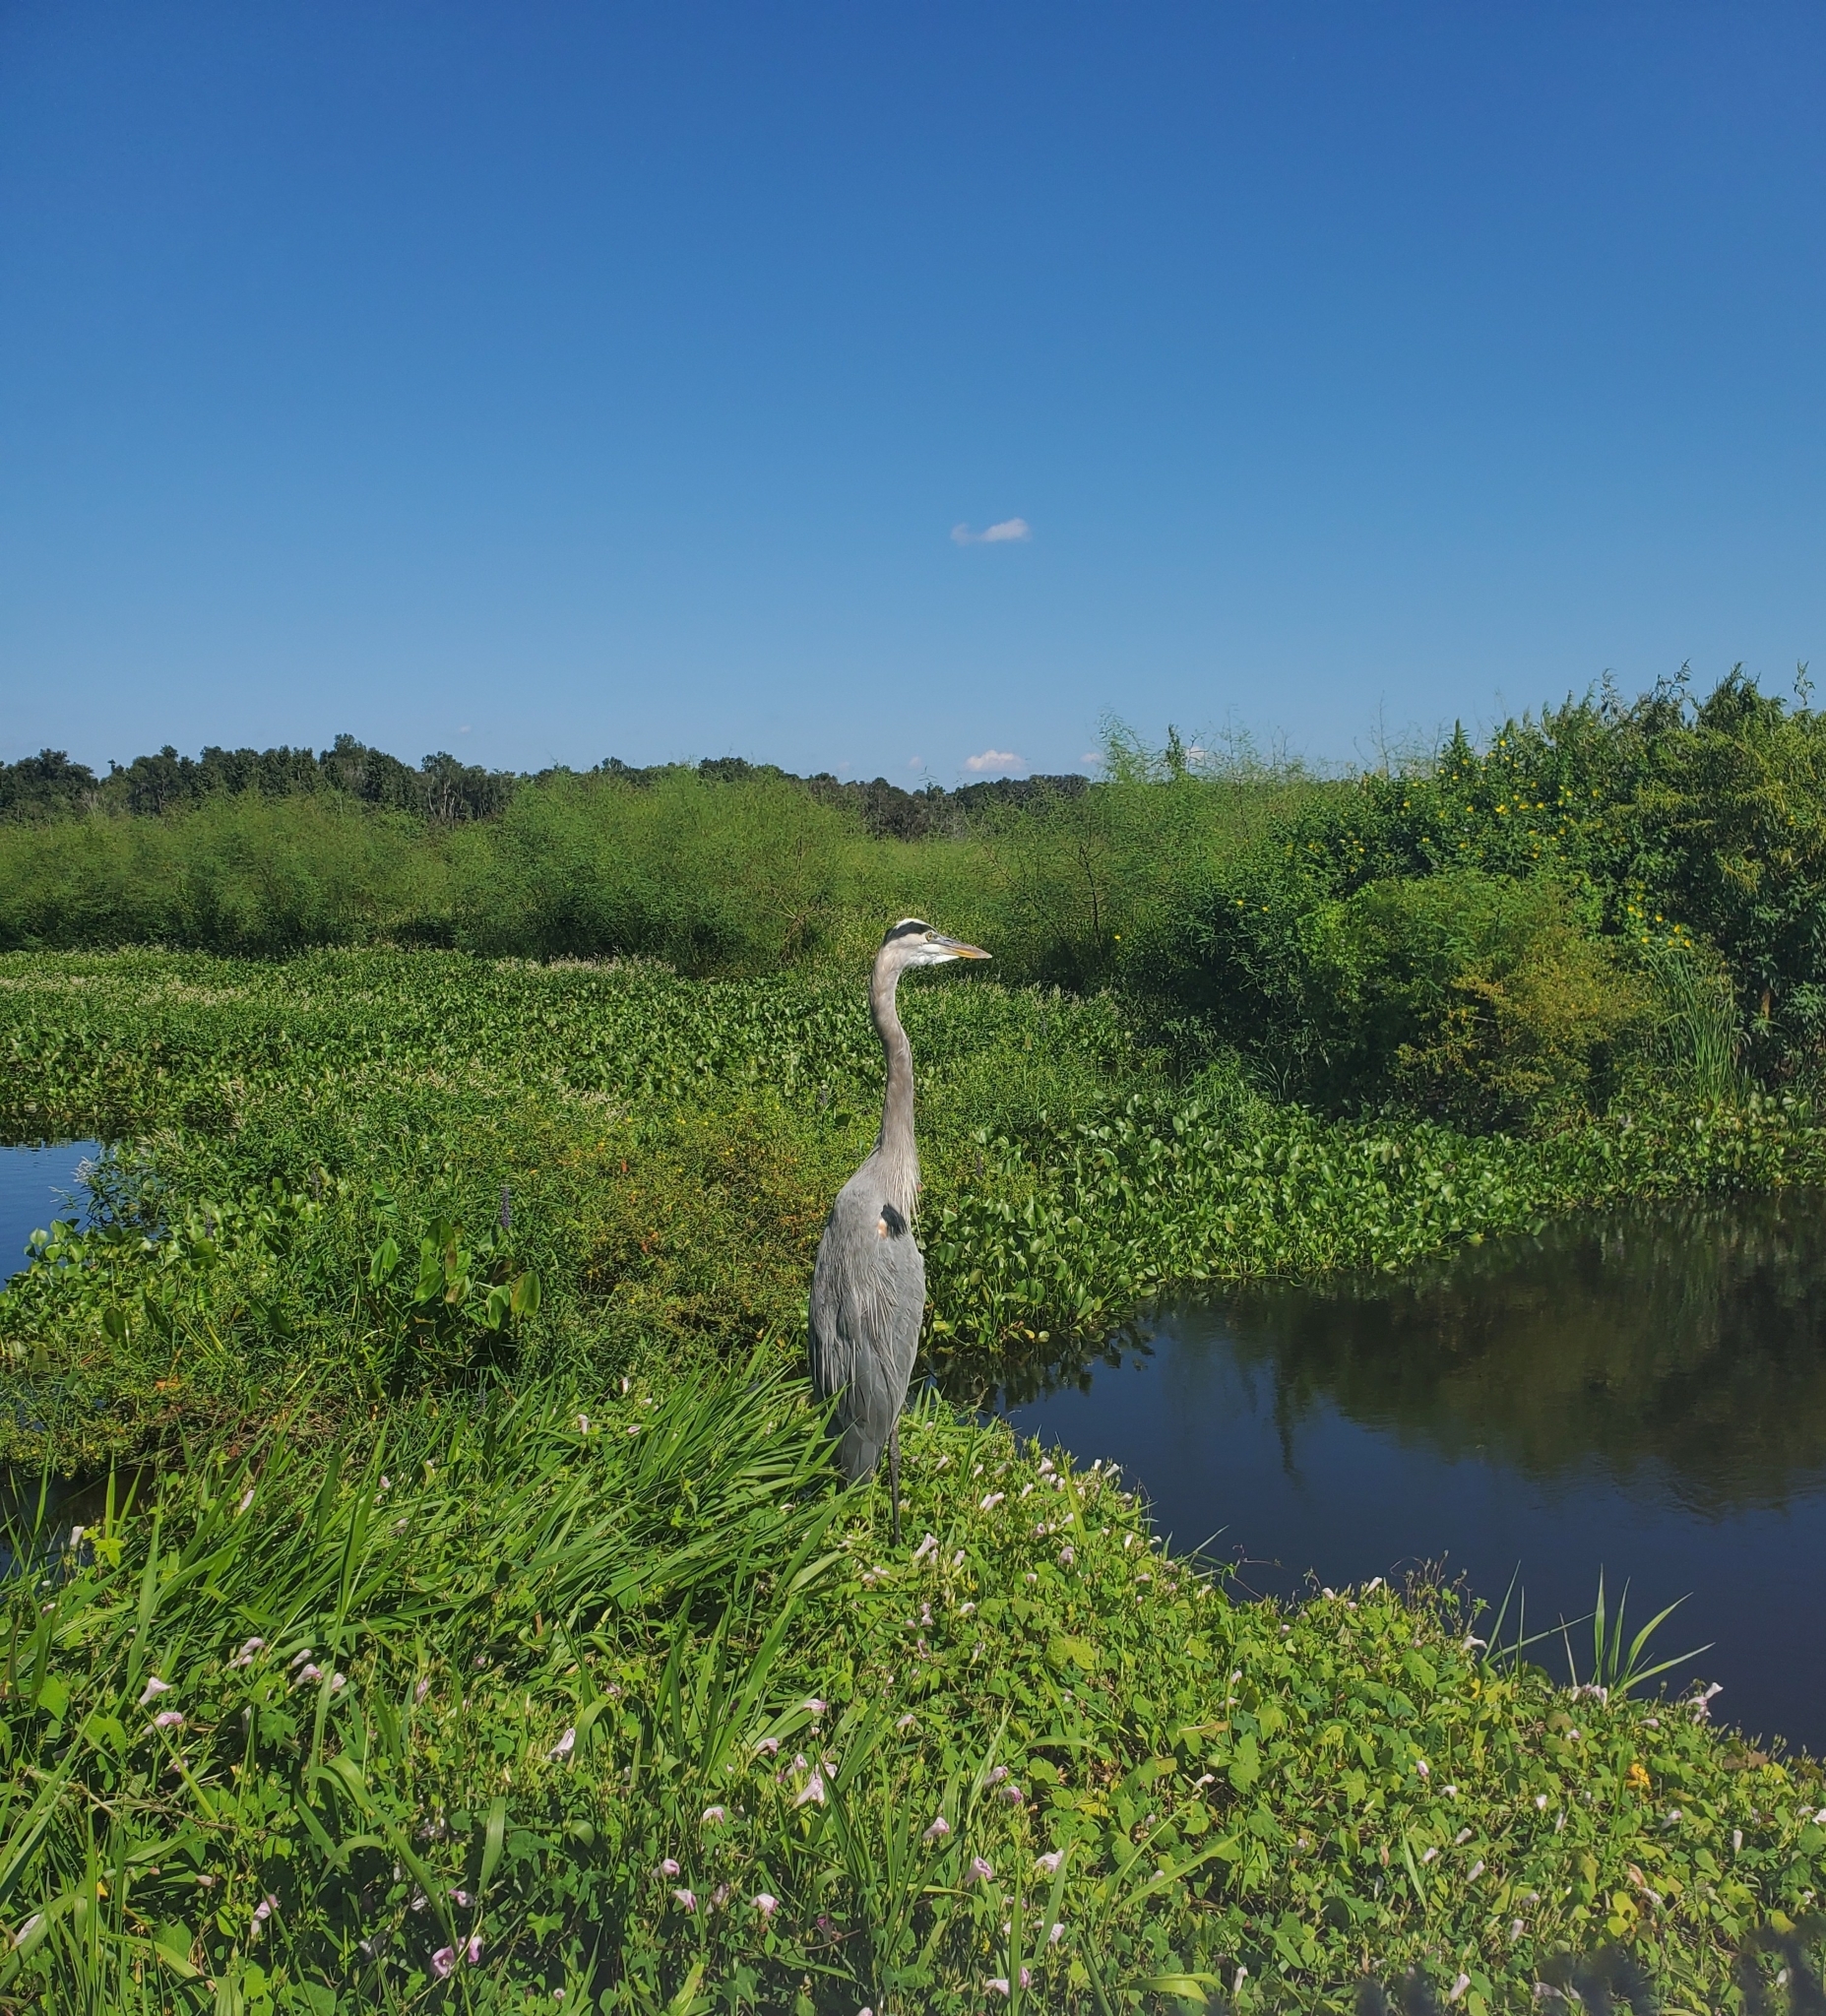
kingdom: Animalia
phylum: Chordata
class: Aves
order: Pelecaniformes
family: Ardeidae
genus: Ardea
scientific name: Ardea herodias
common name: Great blue heron
